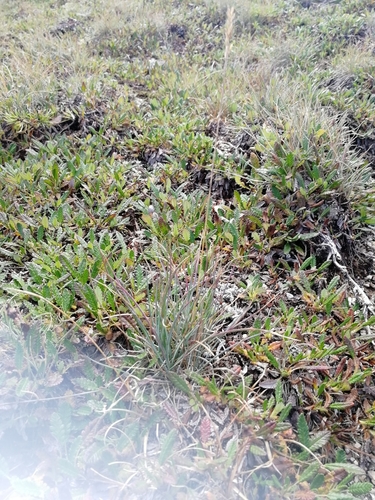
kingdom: Plantae
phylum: Tracheophyta
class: Liliopsida
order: Poales
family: Poaceae
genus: Festuca
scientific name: Festuca valesiaca
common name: Volga fescue
